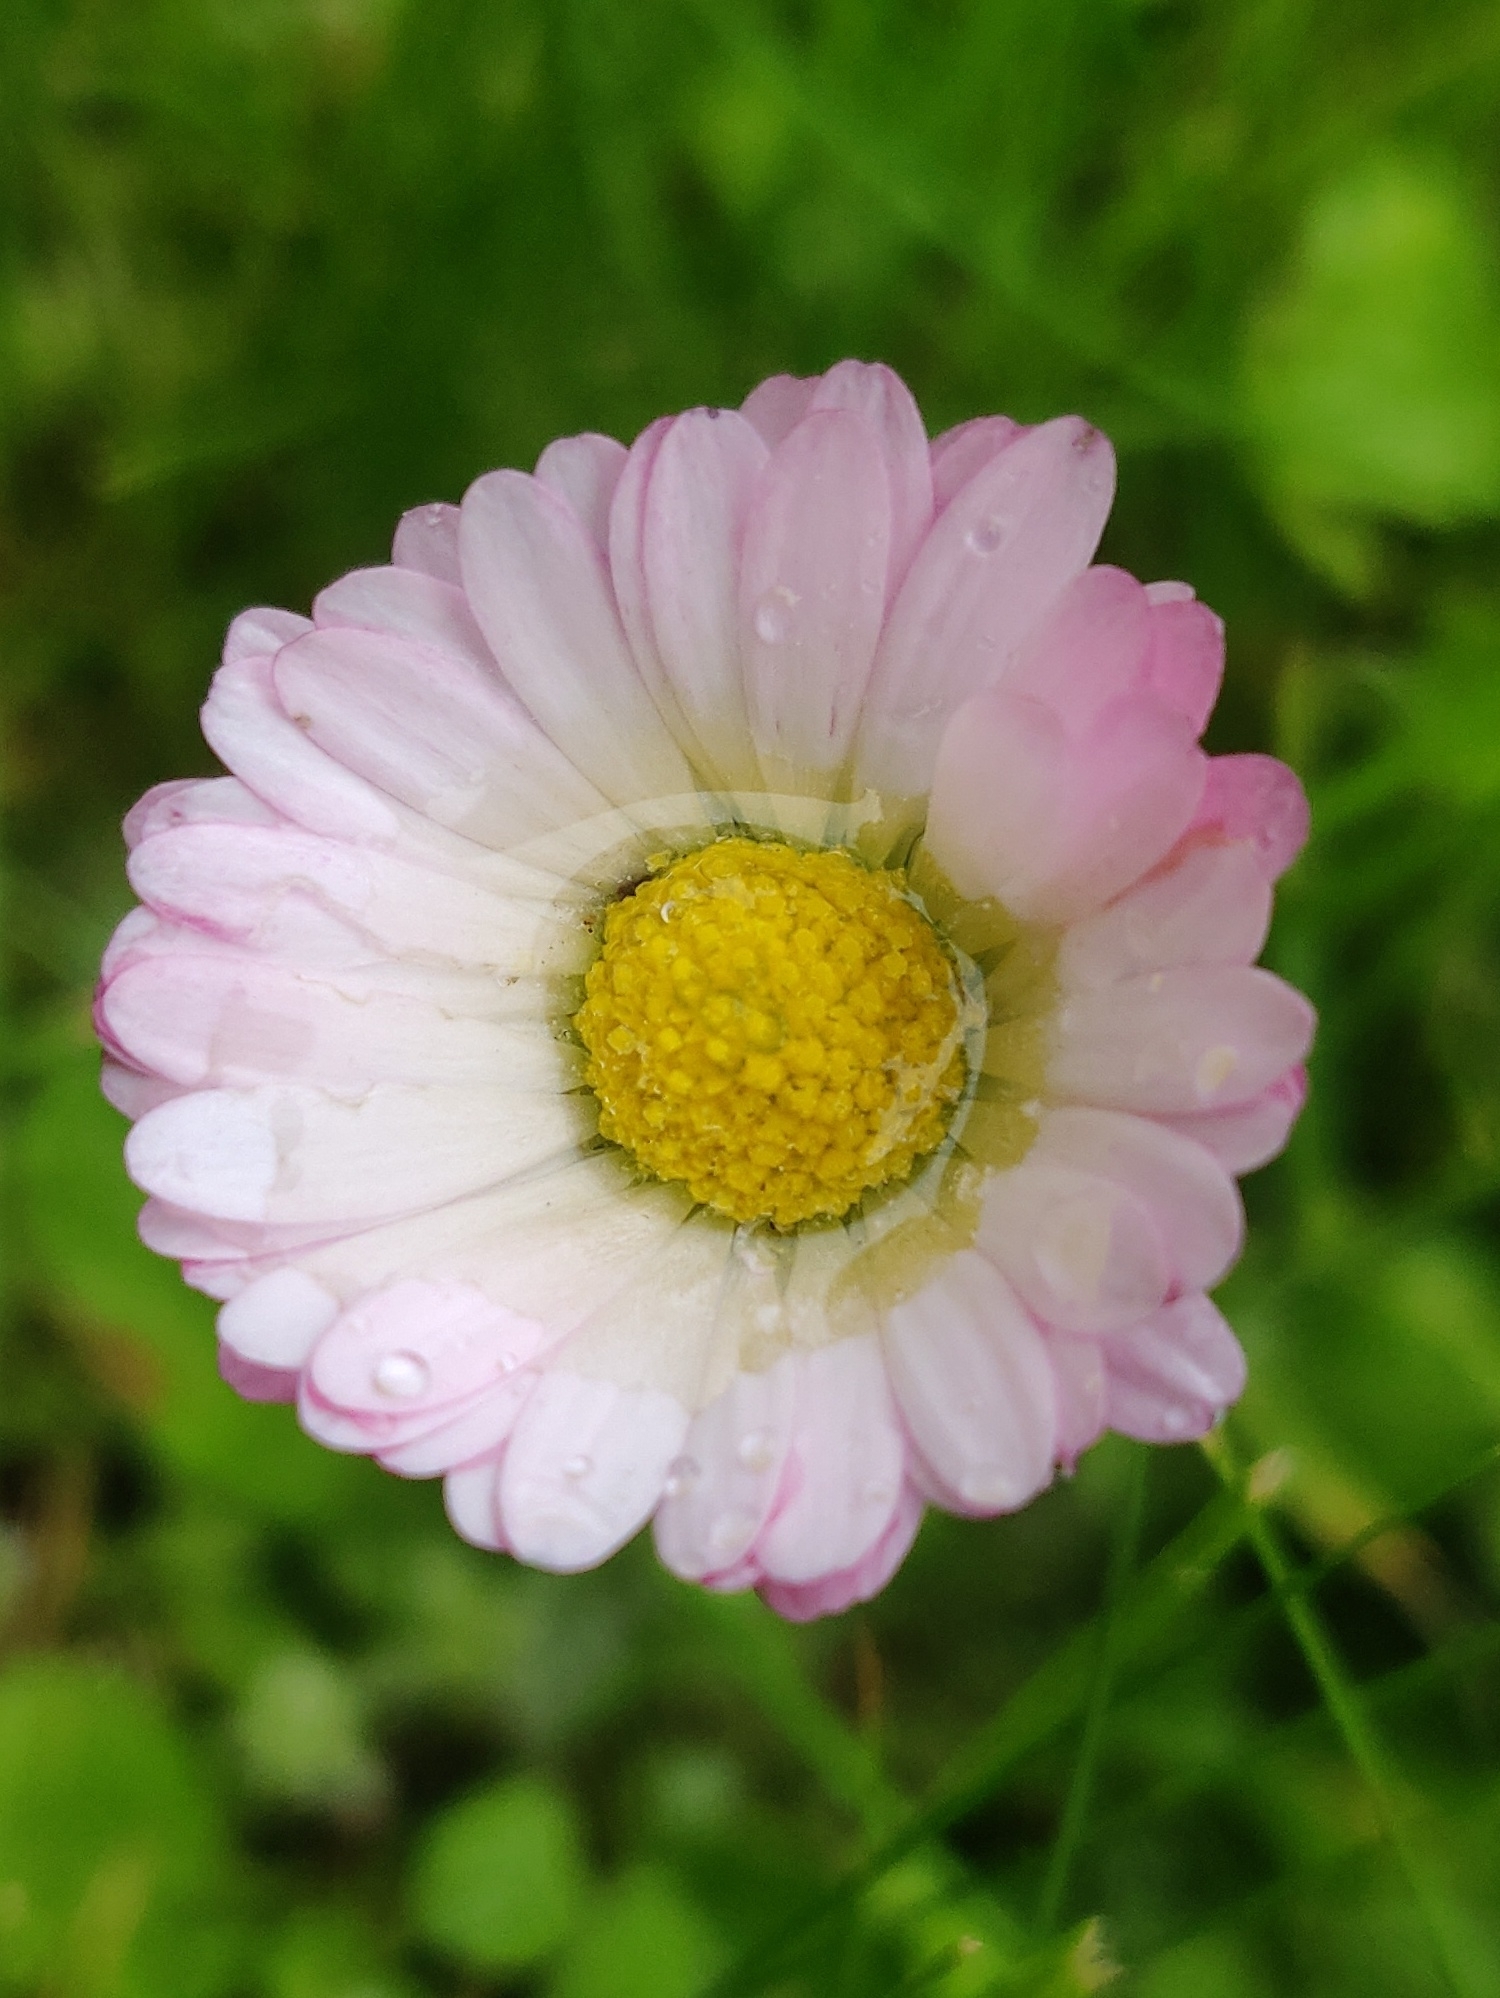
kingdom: Plantae
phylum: Tracheophyta
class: Magnoliopsida
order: Asterales
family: Asteraceae
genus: Bellis
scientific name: Bellis perennis
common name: Lawndaisy
